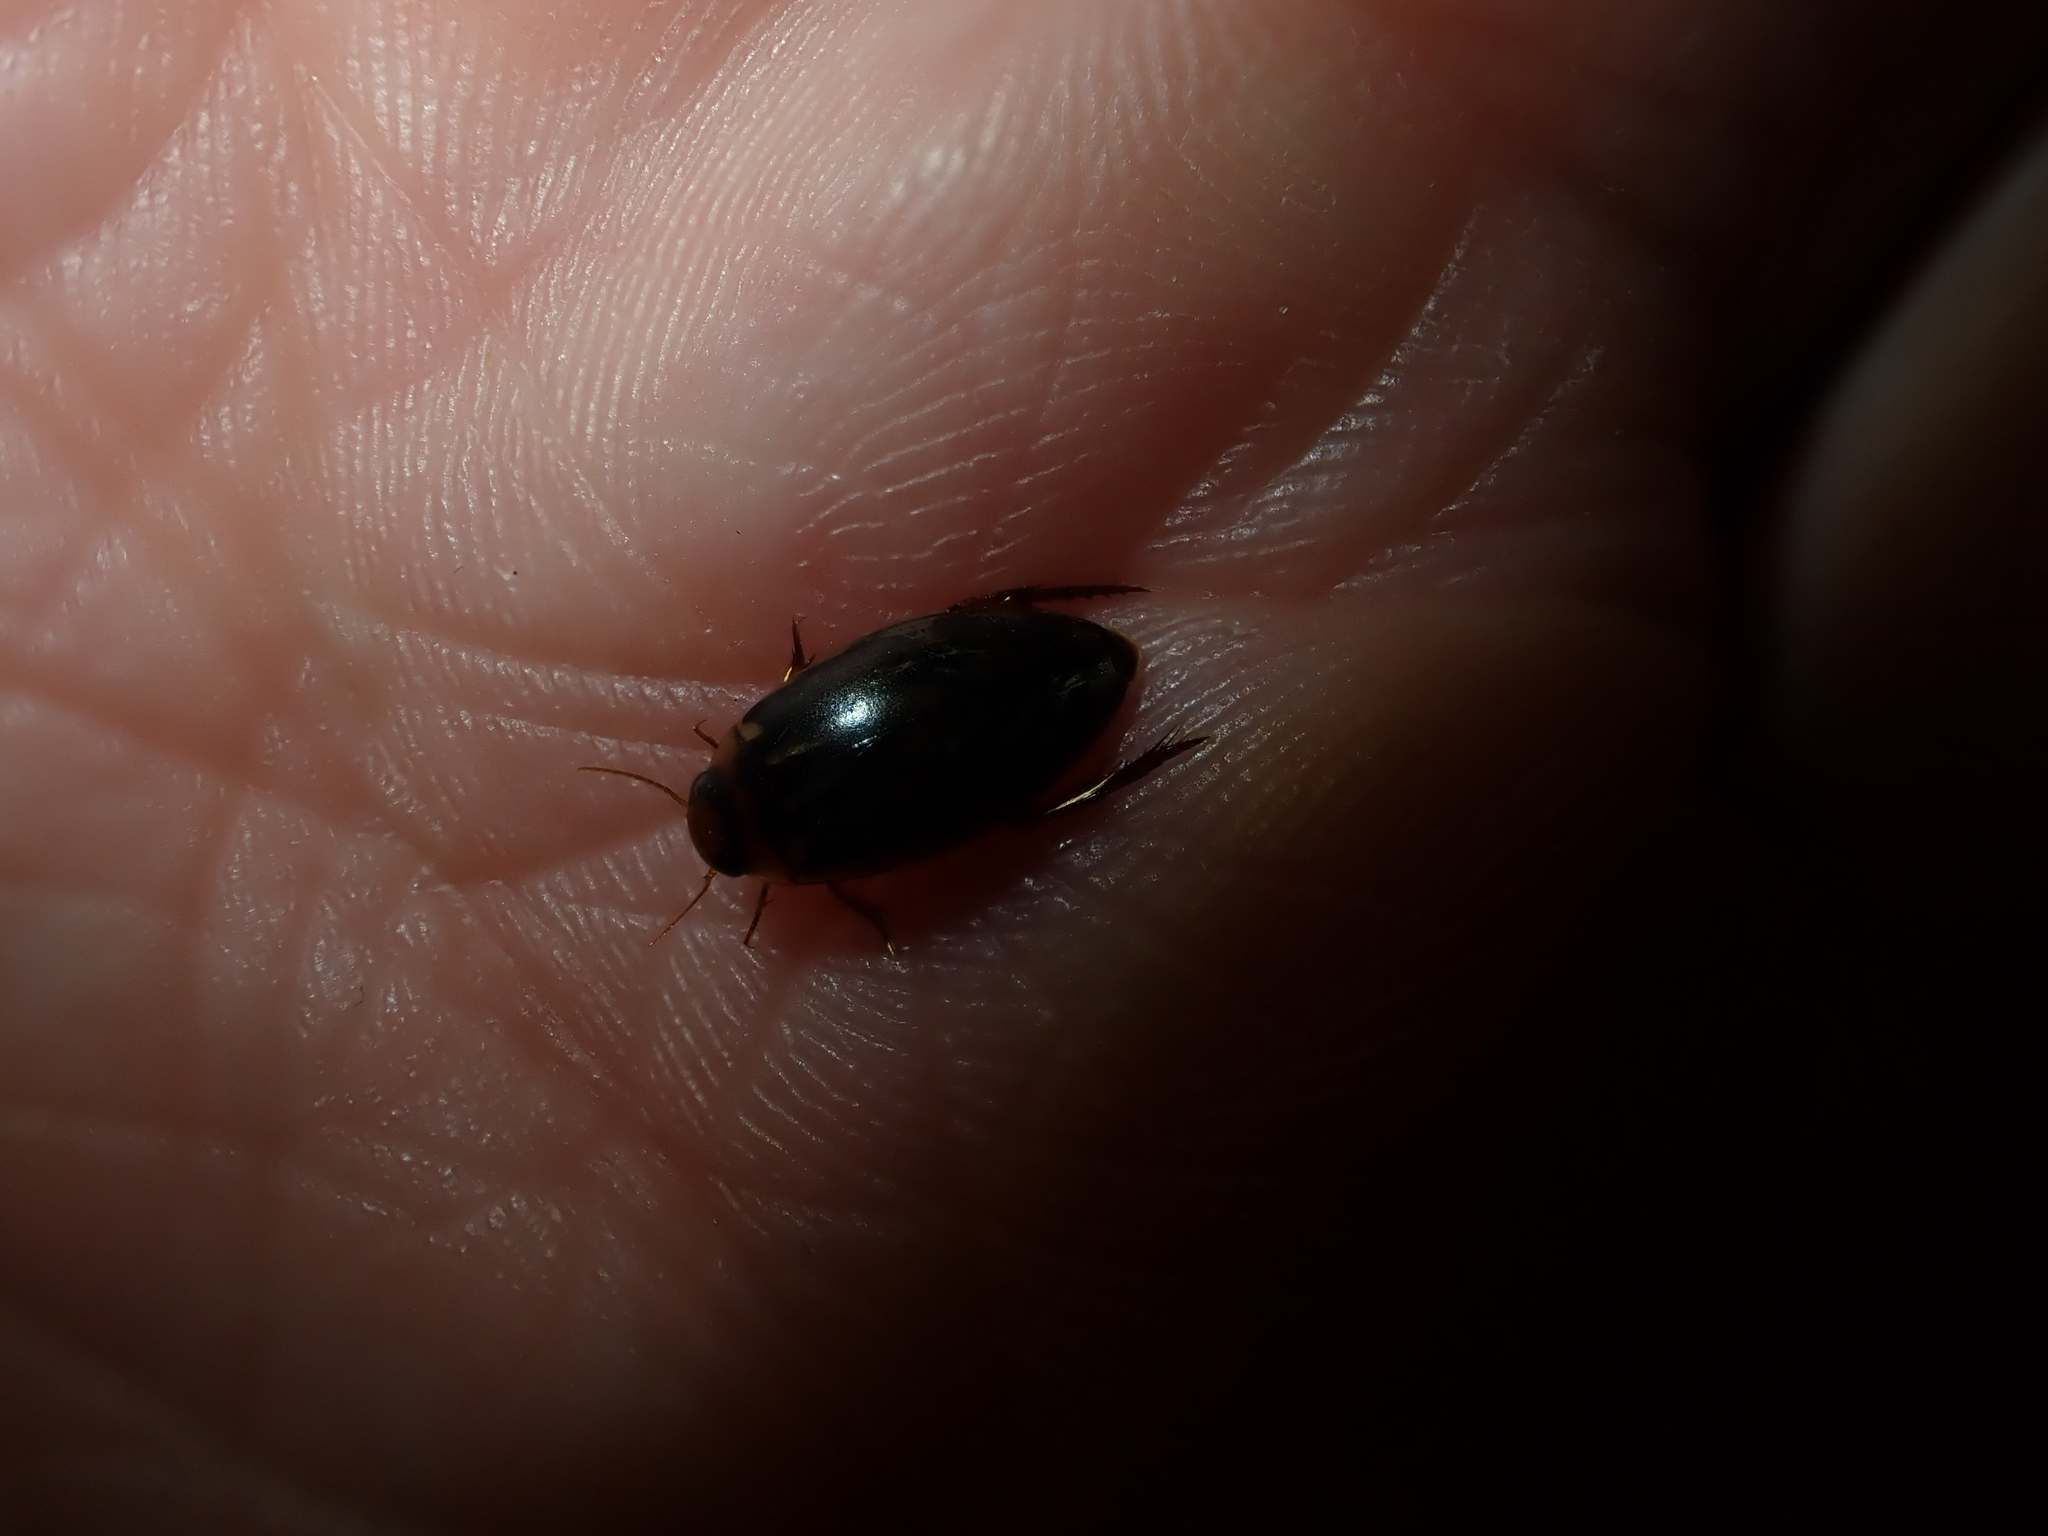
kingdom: Animalia
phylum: Arthropoda
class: Insecta
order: Coleoptera
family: Dytiscidae
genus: Meridiorhantus
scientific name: Meridiorhantus calidus
